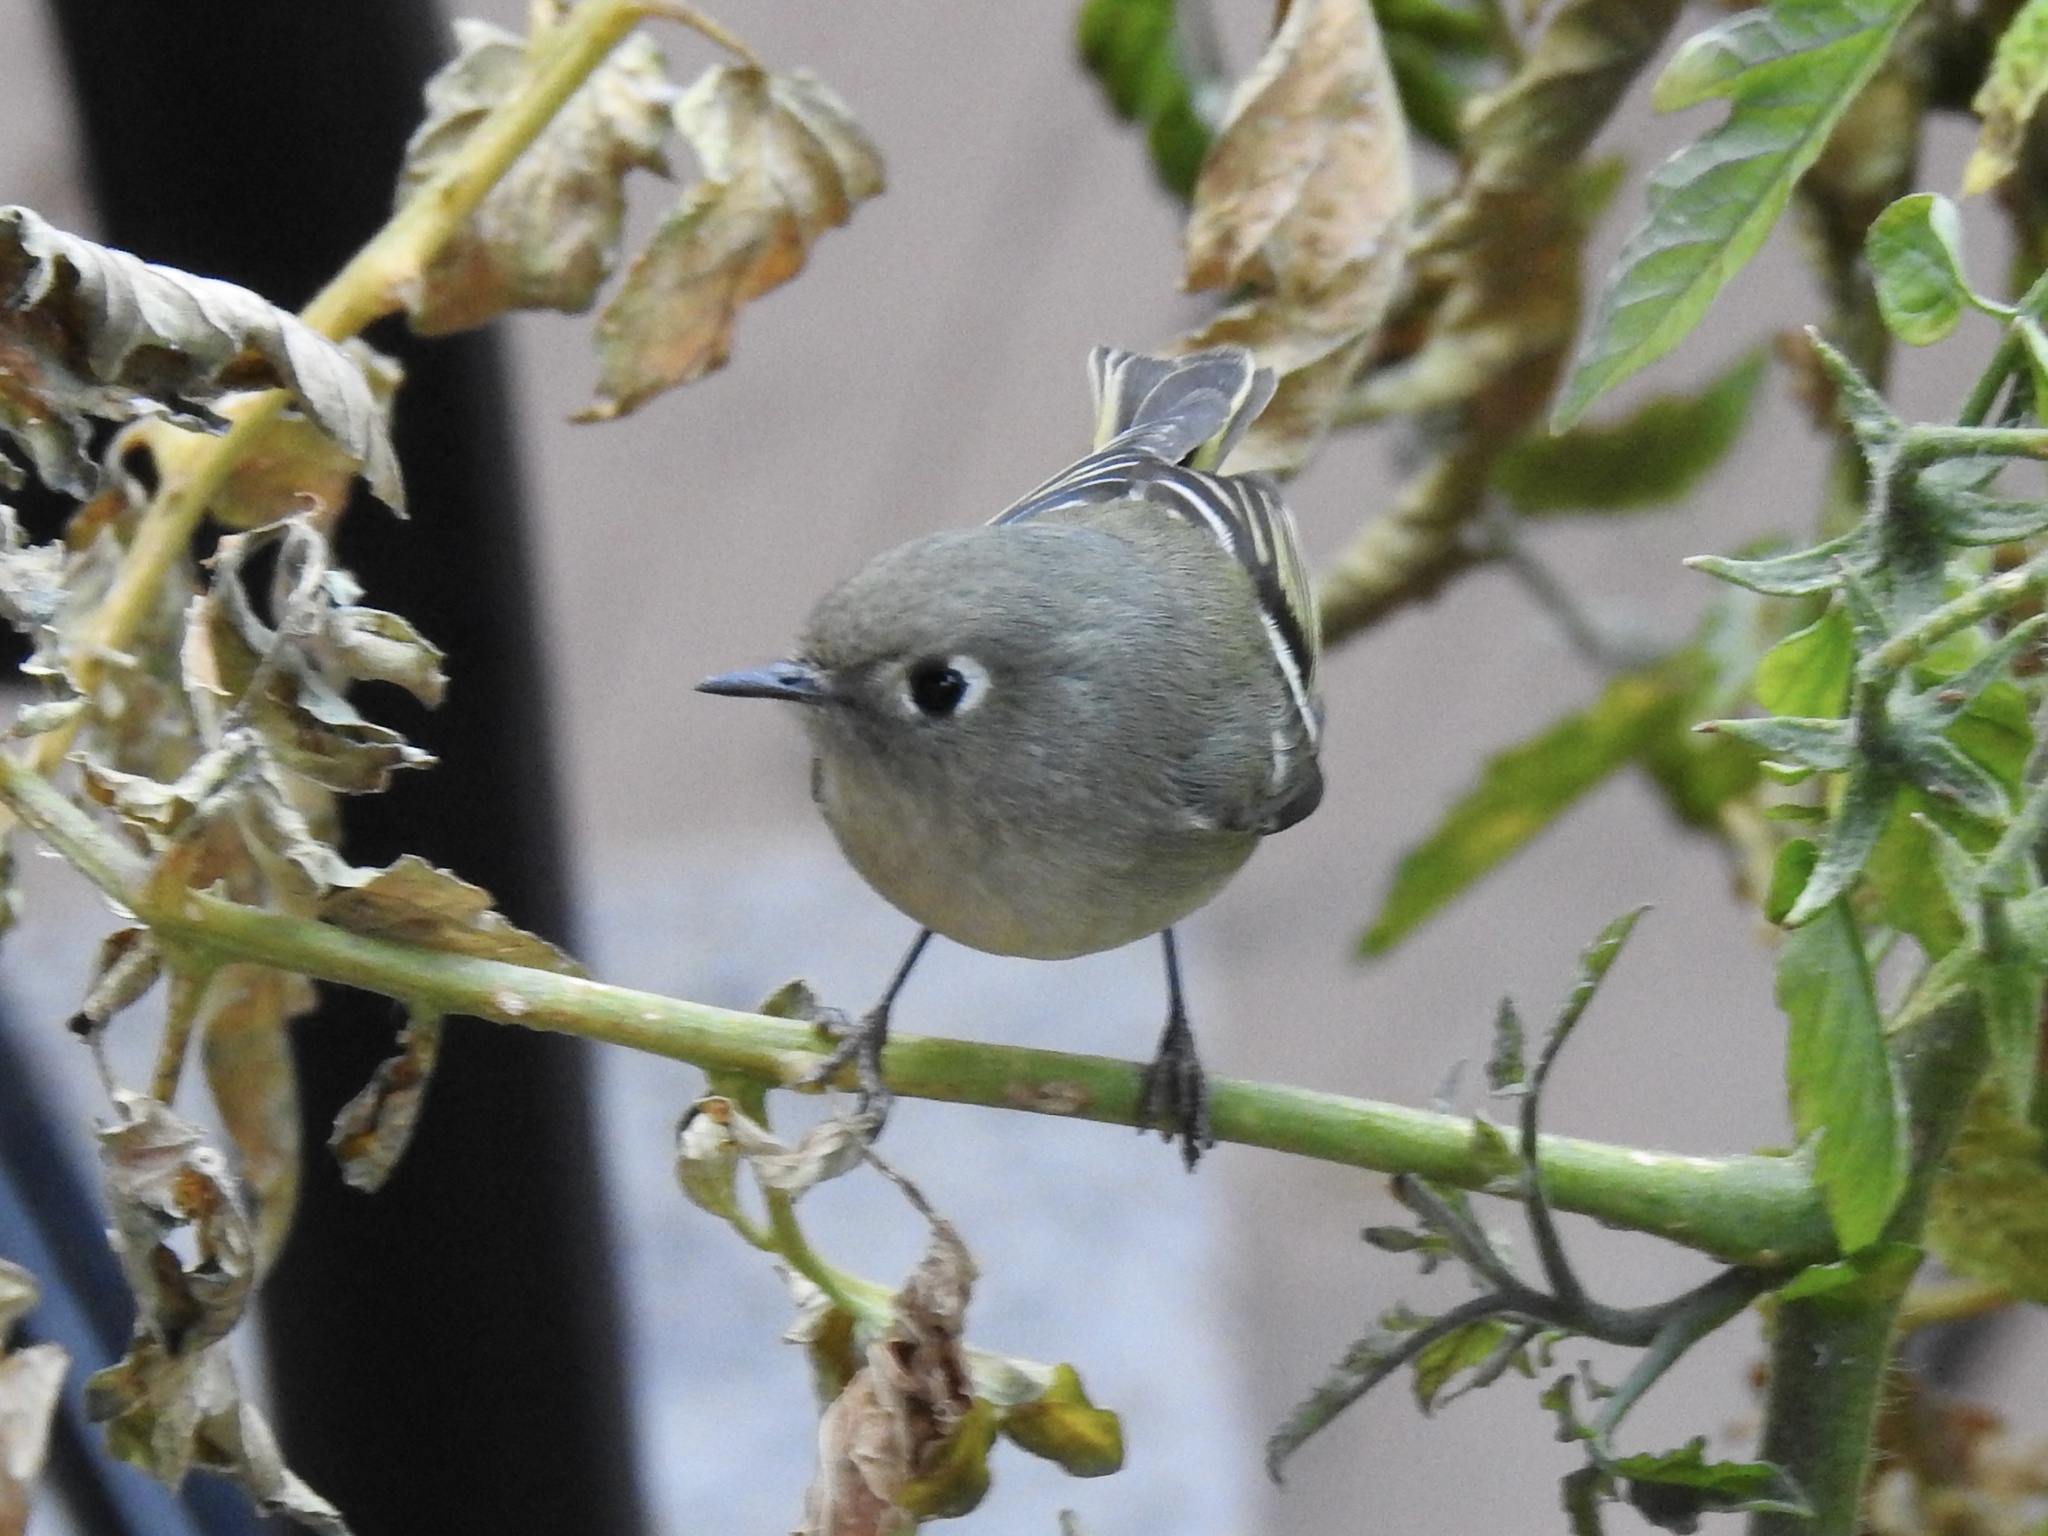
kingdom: Animalia
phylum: Chordata
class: Aves
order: Passeriformes
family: Regulidae
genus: Regulus
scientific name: Regulus calendula
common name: Ruby-crowned kinglet
